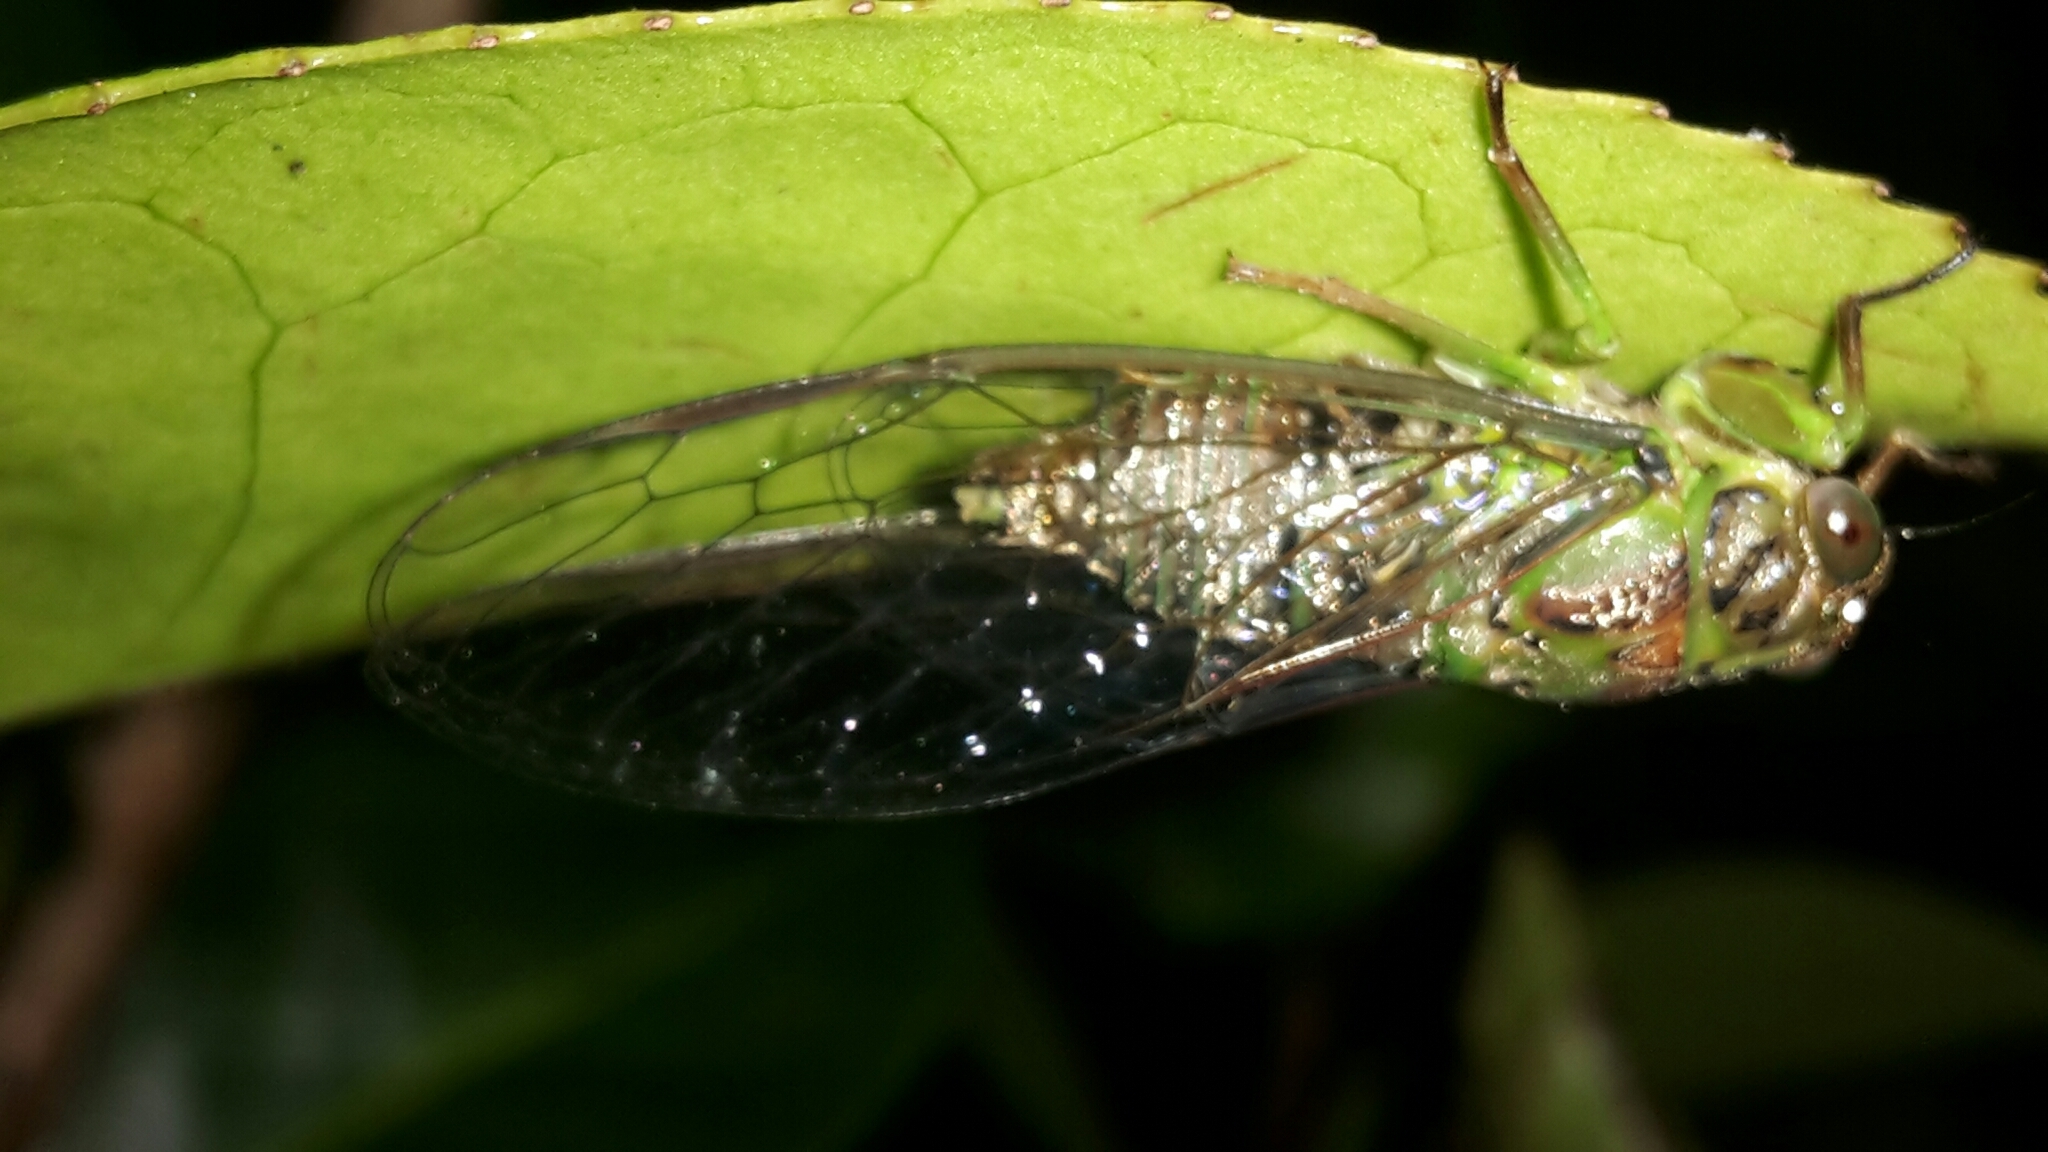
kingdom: Animalia
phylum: Arthropoda
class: Insecta
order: Hemiptera
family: Cicadidae
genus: Kikihia
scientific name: Kikihia scutellaris
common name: Lesser bronze cicada
